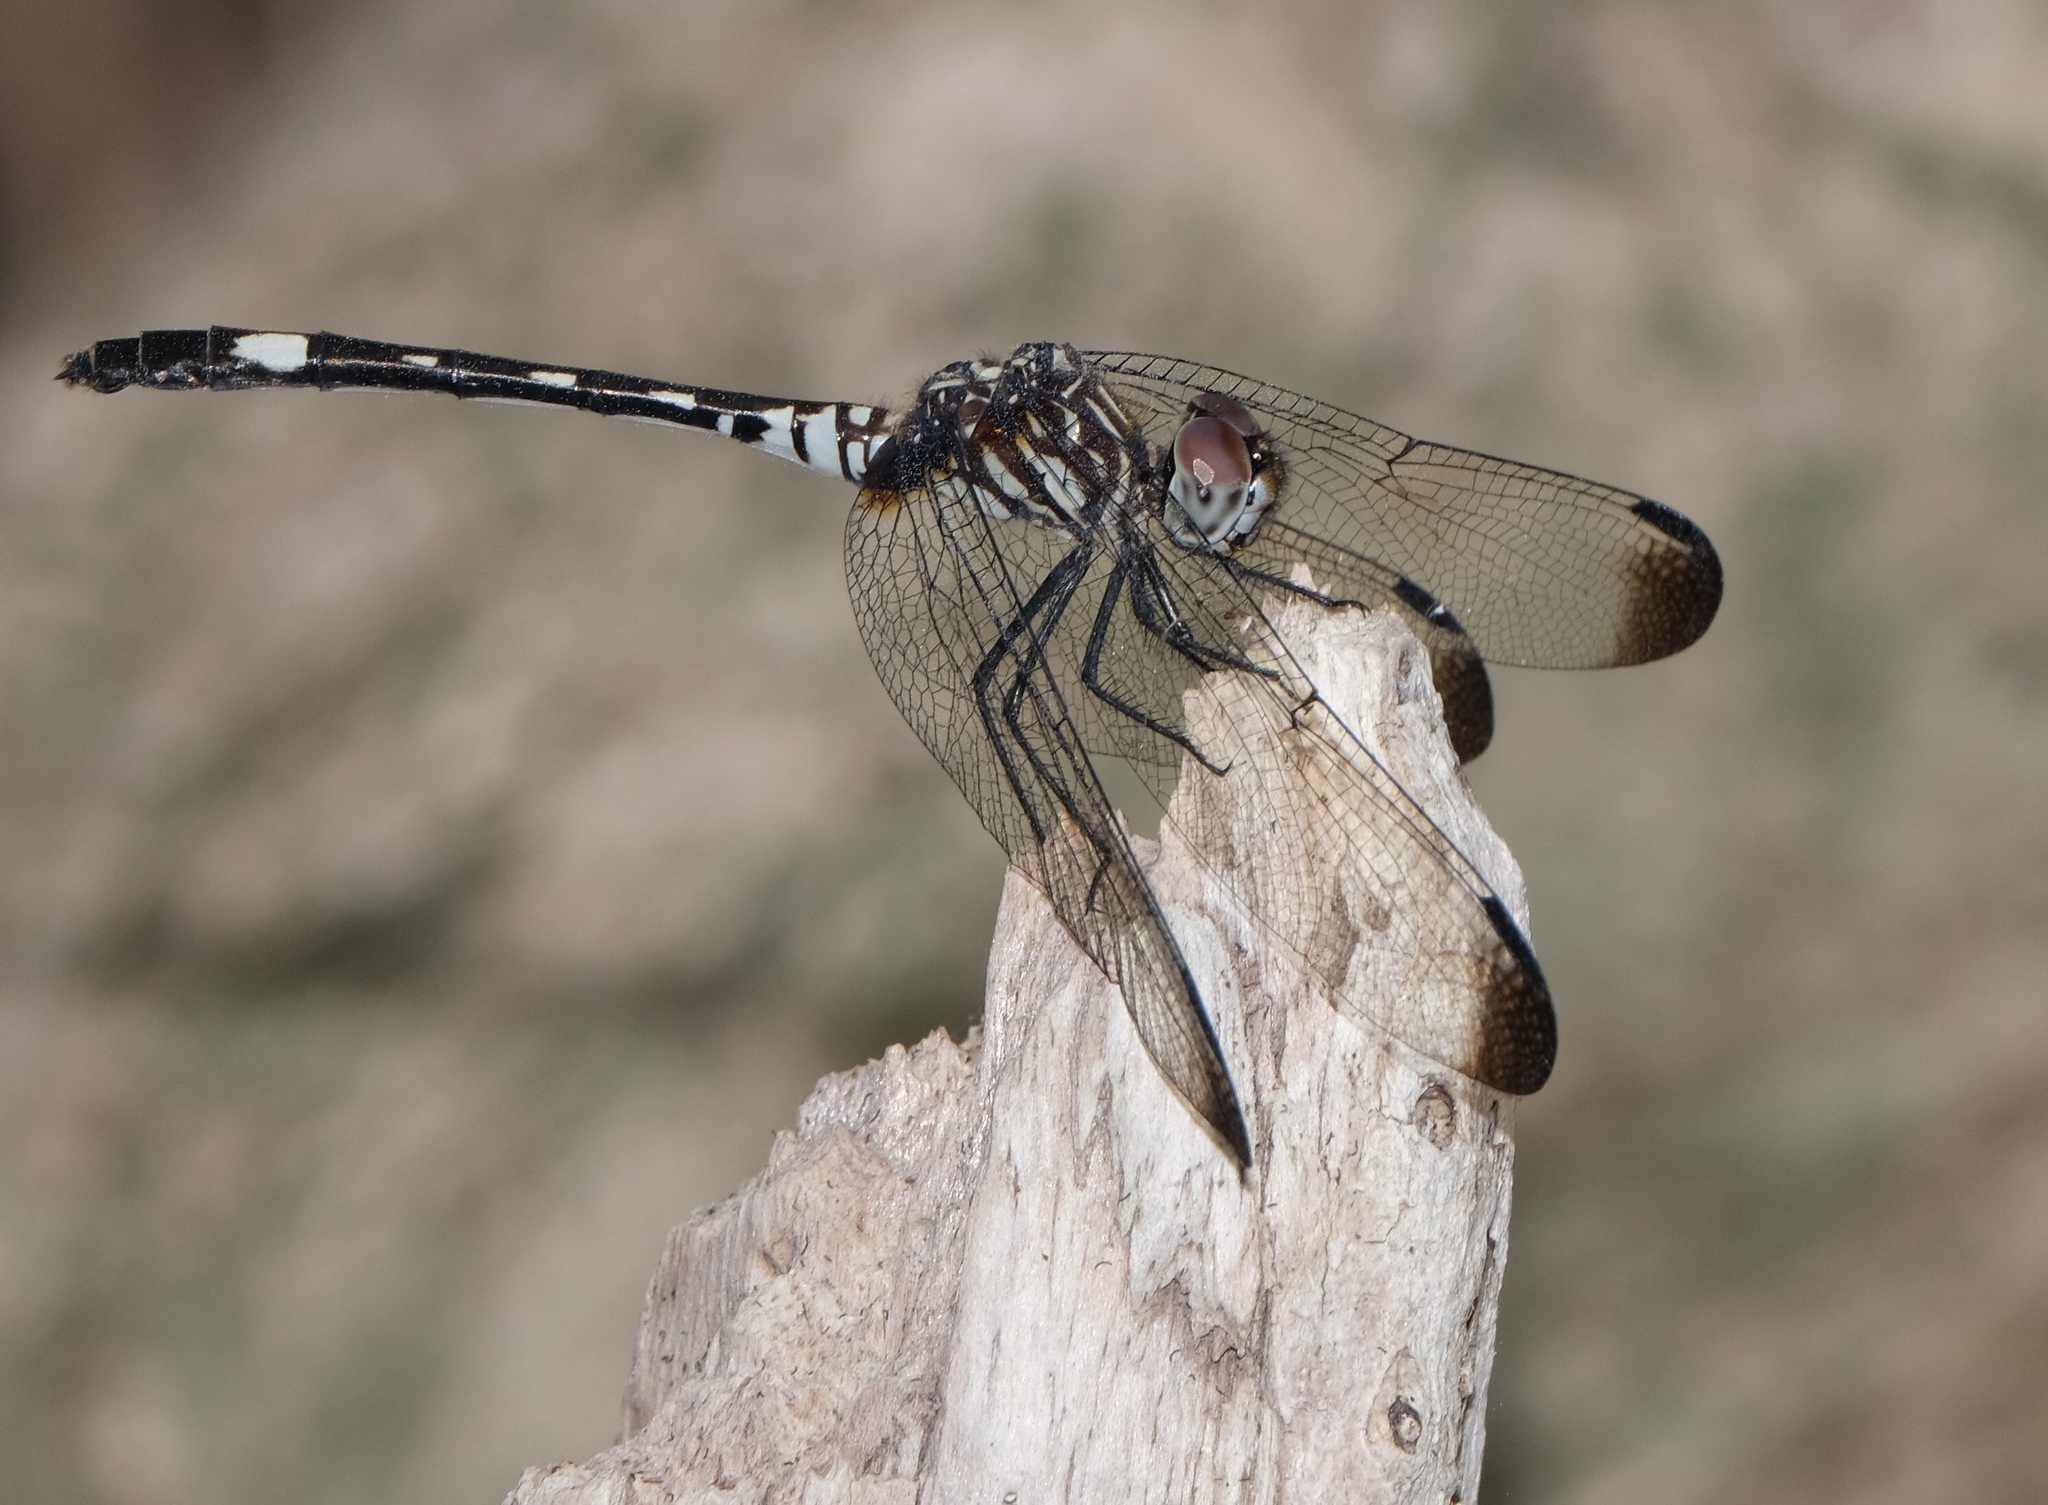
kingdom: Animalia
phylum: Arthropoda
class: Insecta
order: Odonata
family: Libellulidae
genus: Dythemis
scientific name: Dythemis velox
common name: Swift setwing
